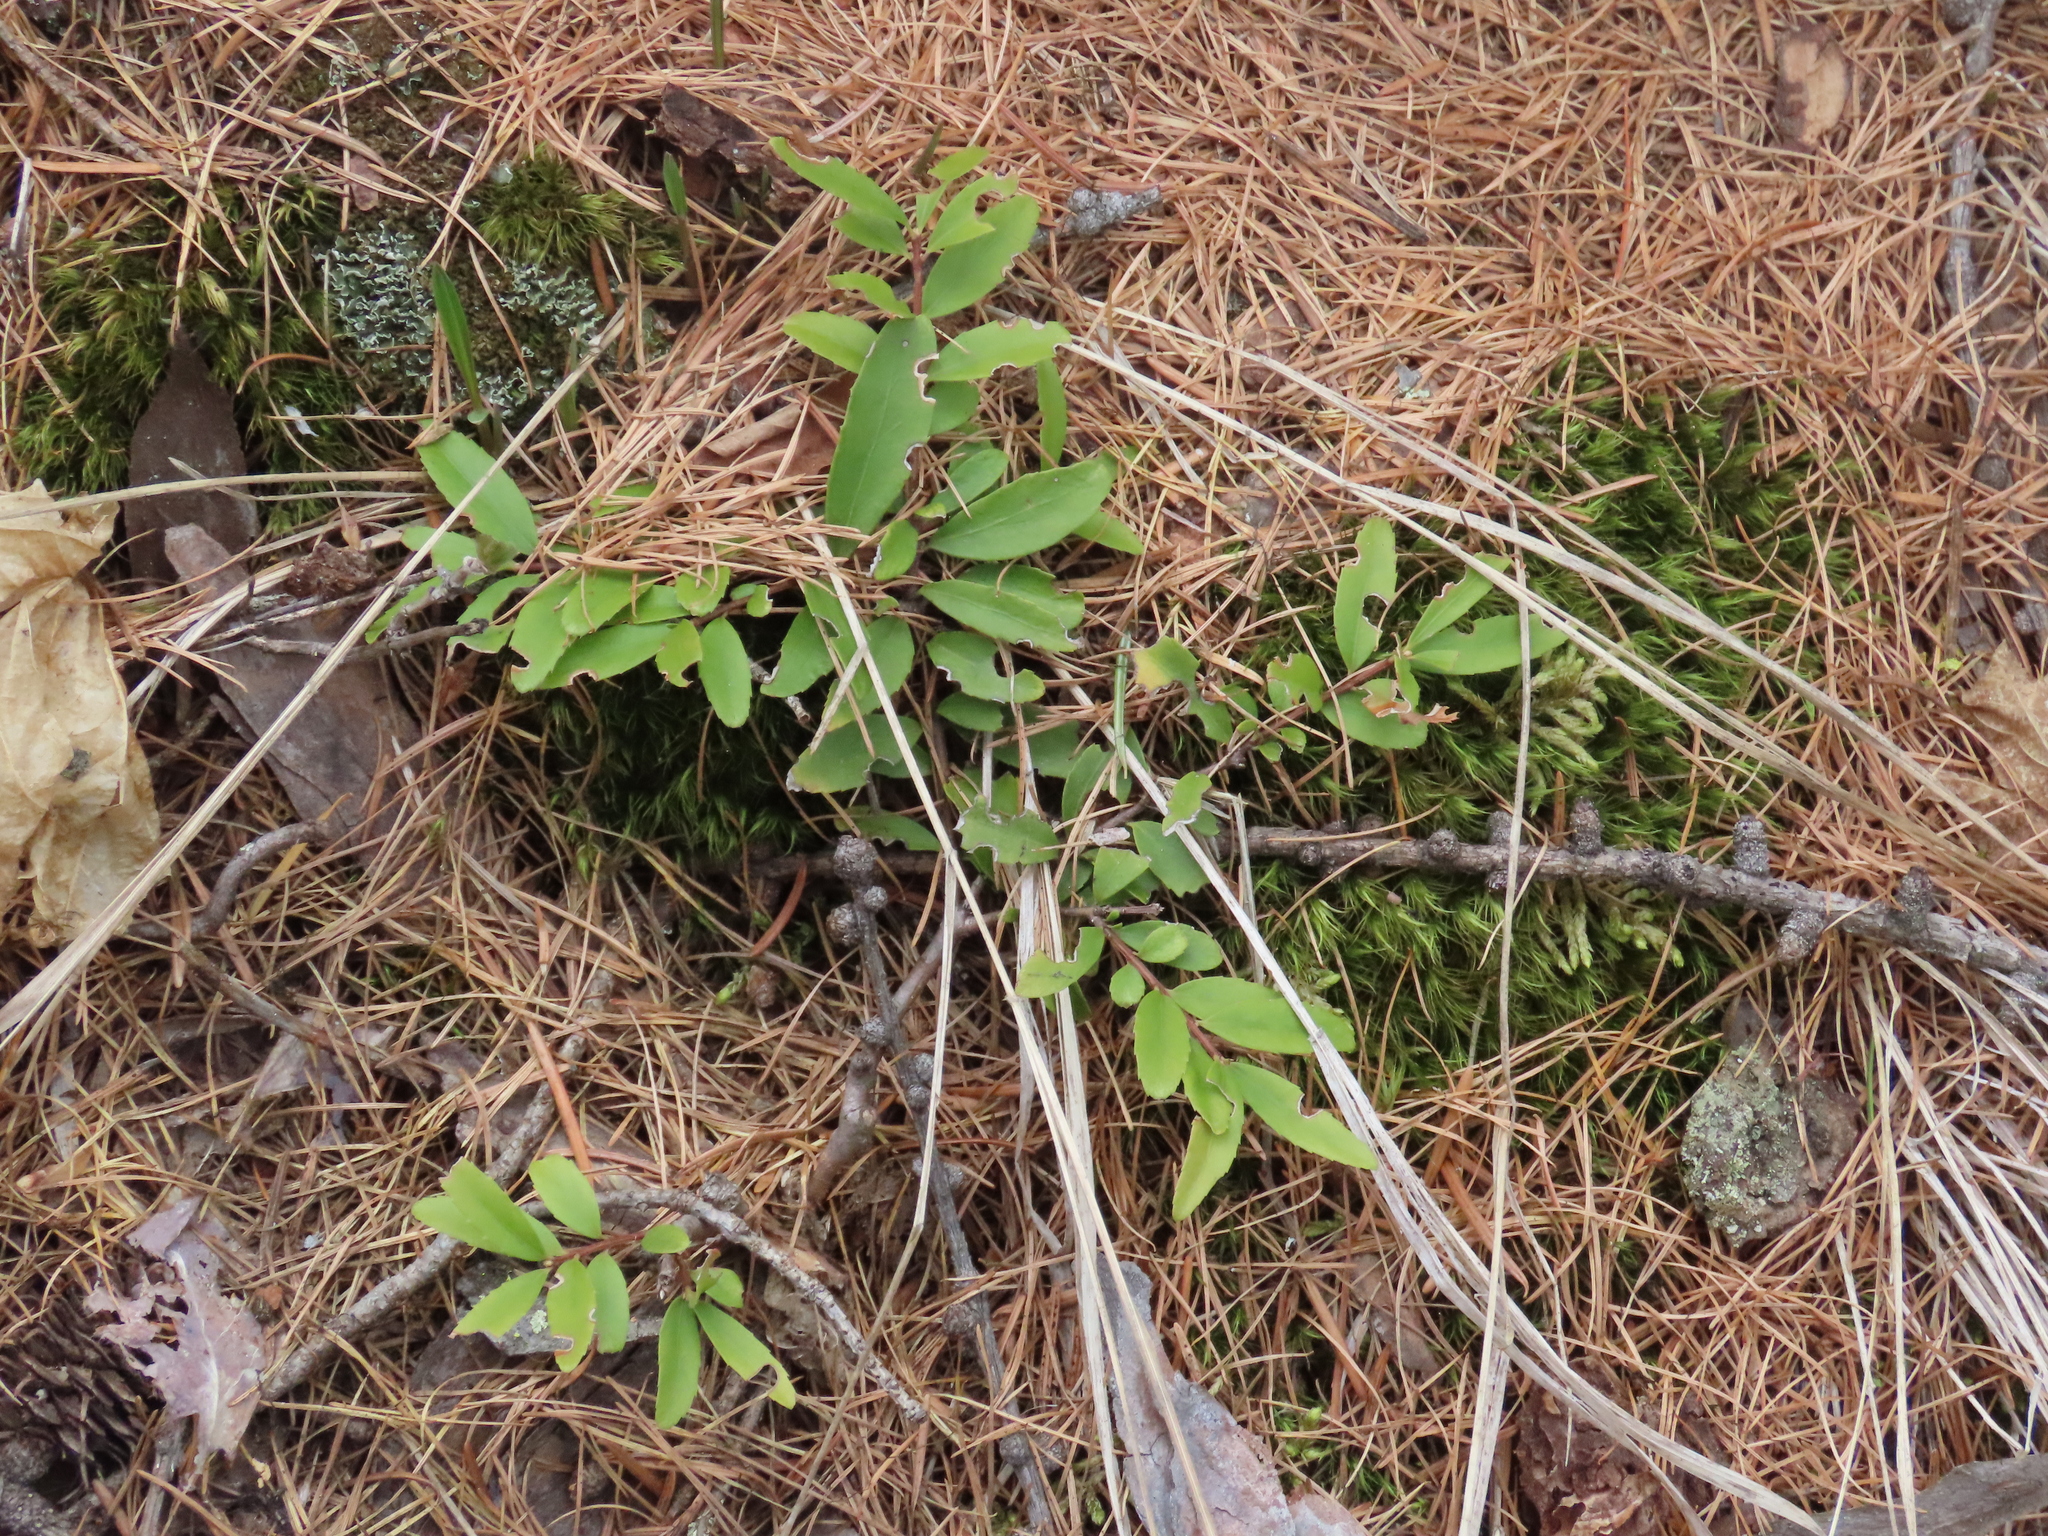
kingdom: Plantae
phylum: Tracheophyta
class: Magnoliopsida
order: Celastrales
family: Celastraceae
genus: Paxistima
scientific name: Paxistima myrsinites
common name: Mountain-lover
